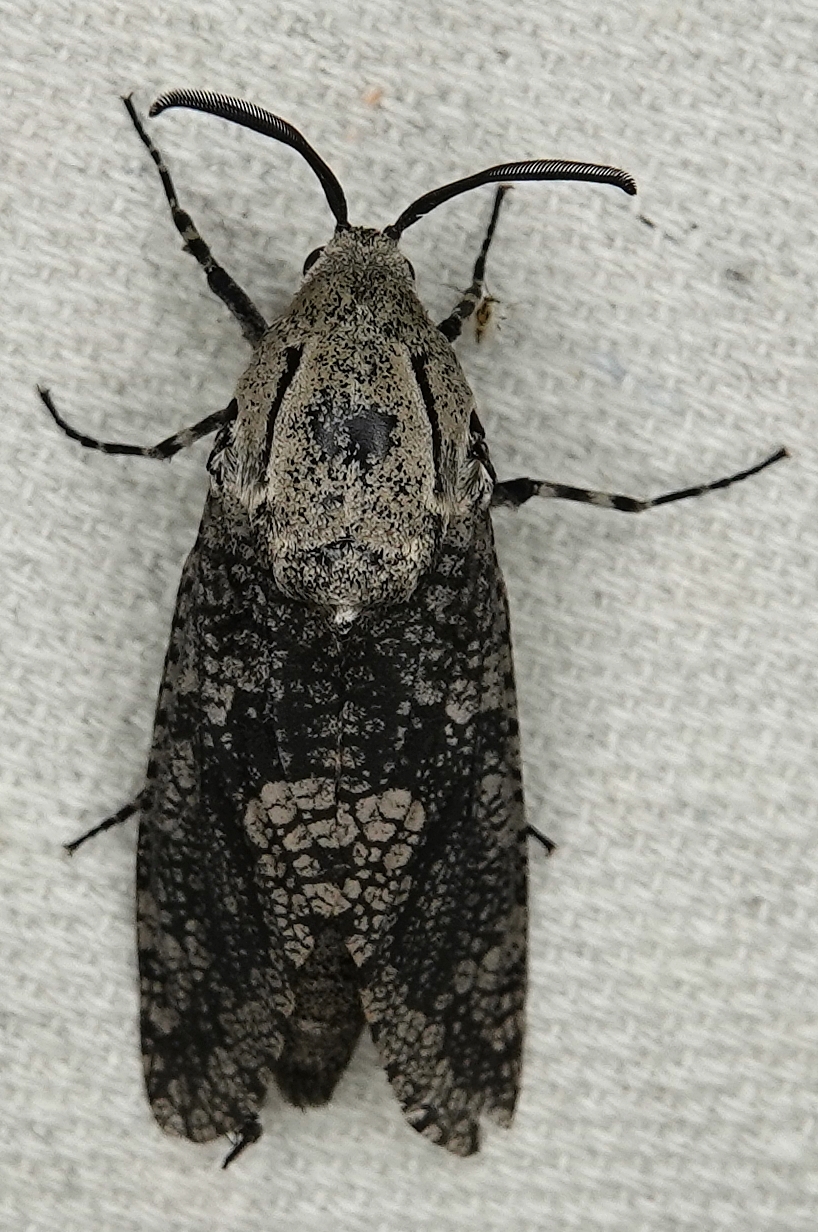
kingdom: Animalia
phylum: Arthropoda
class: Insecta
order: Lepidoptera
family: Cossidae
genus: Prionoxystus
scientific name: Prionoxystus robiniae
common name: Carpenterworm
